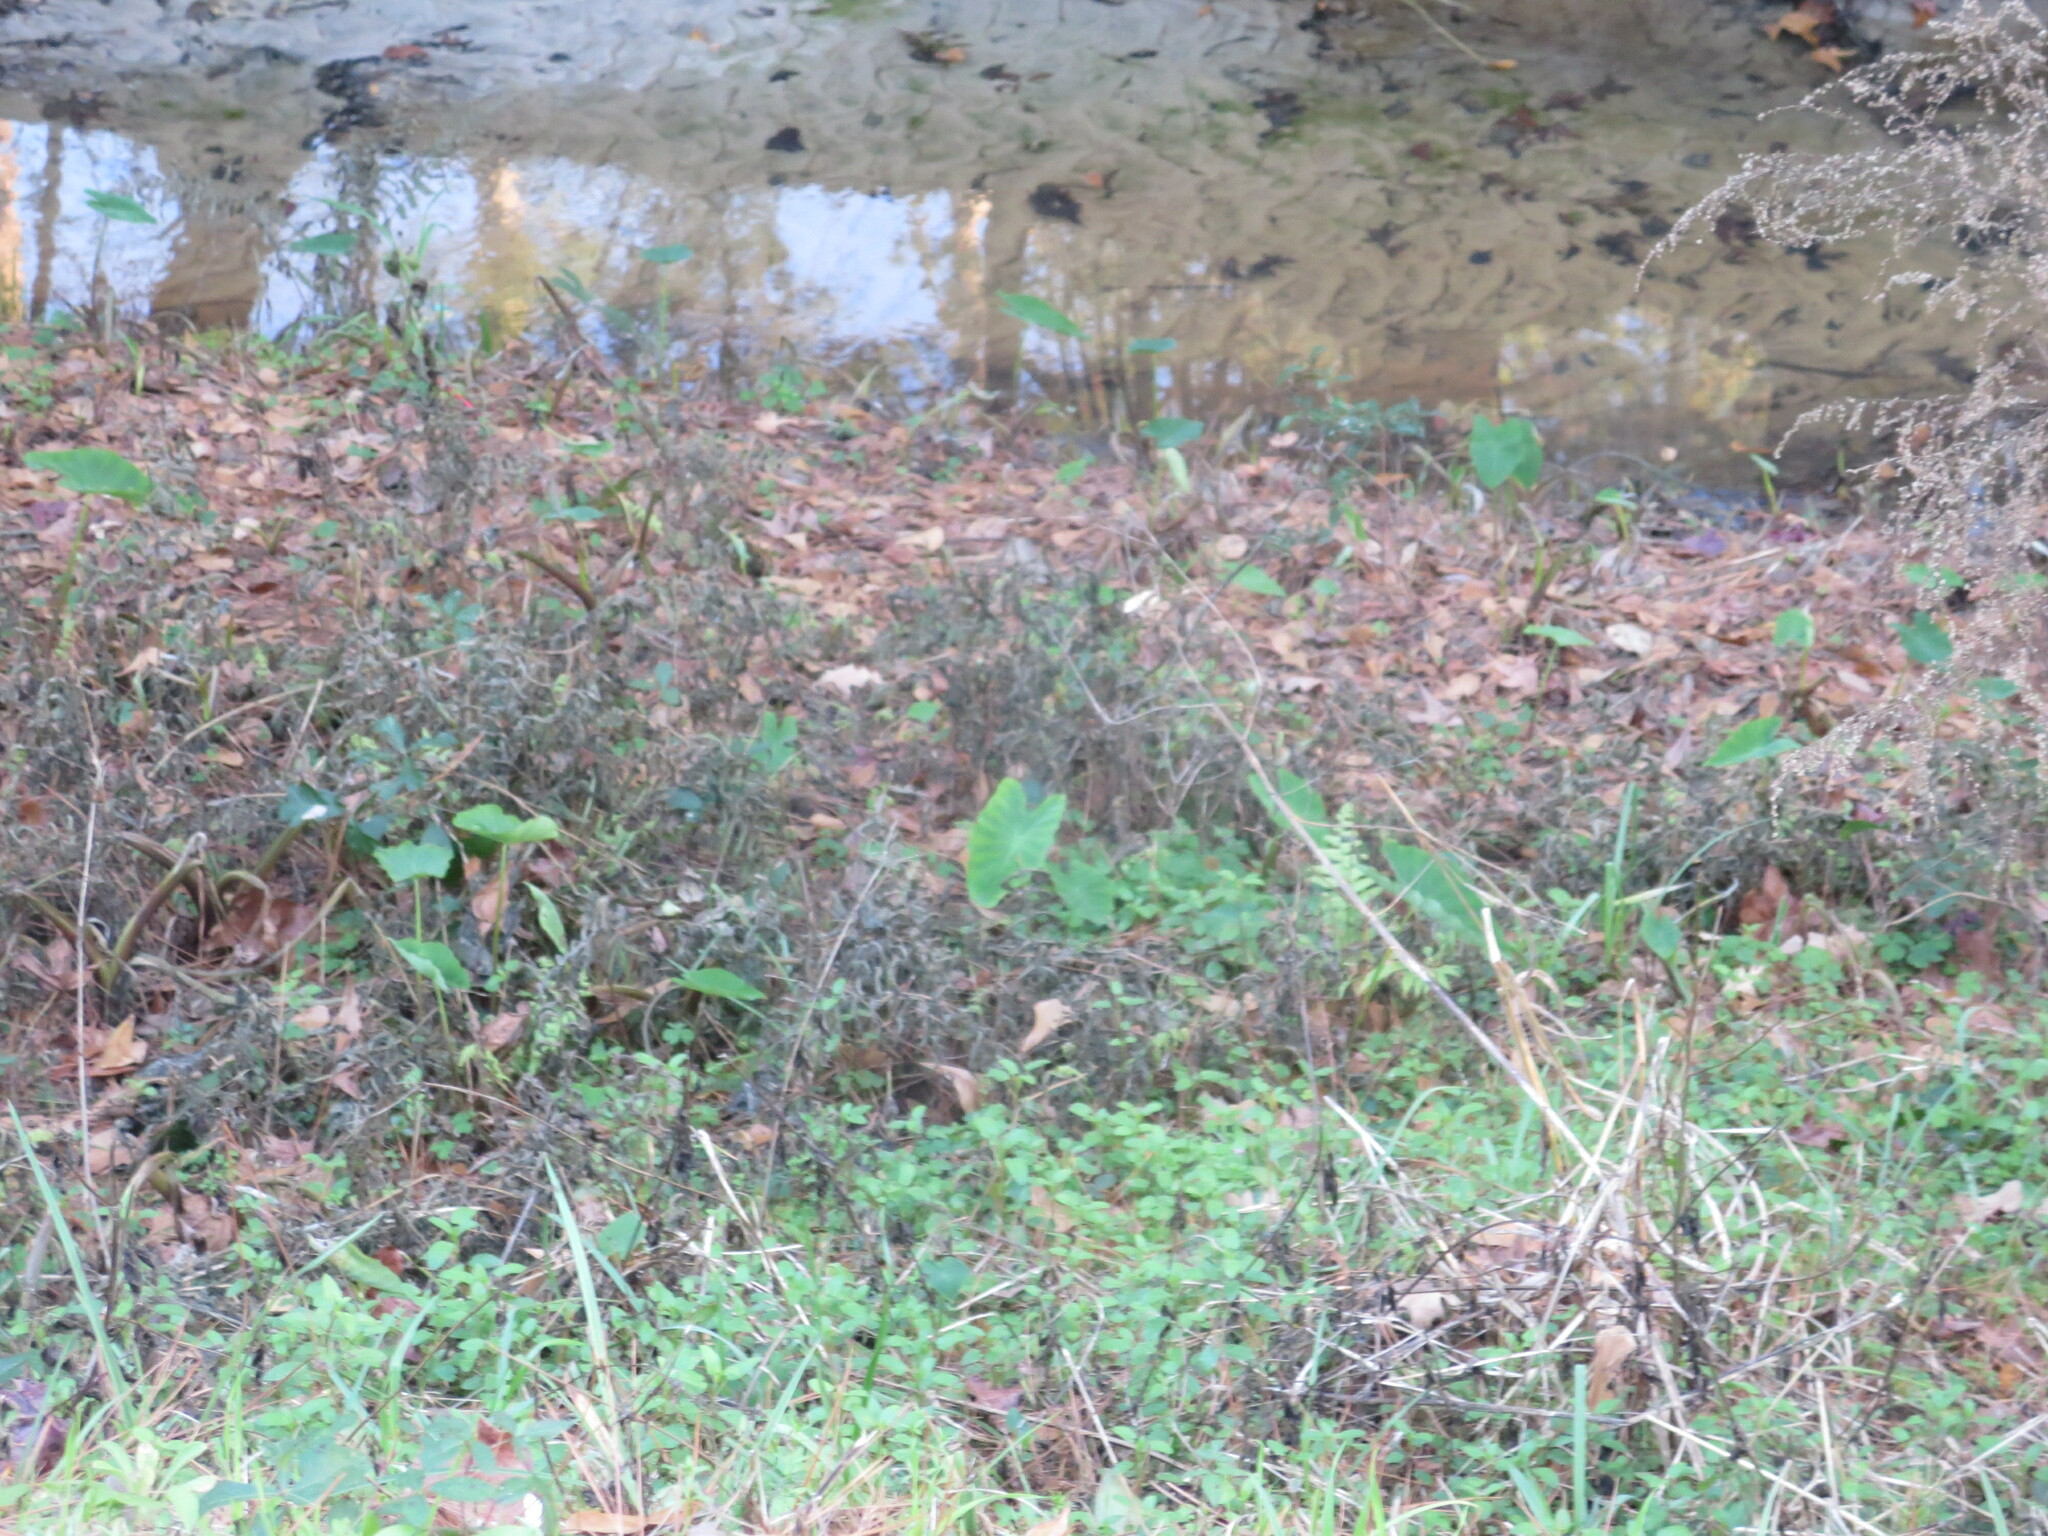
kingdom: Plantae
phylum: Tracheophyta
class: Liliopsida
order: Alismatales
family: Araceae
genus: Colocasia
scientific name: Colocasia esculenta
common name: Taro
